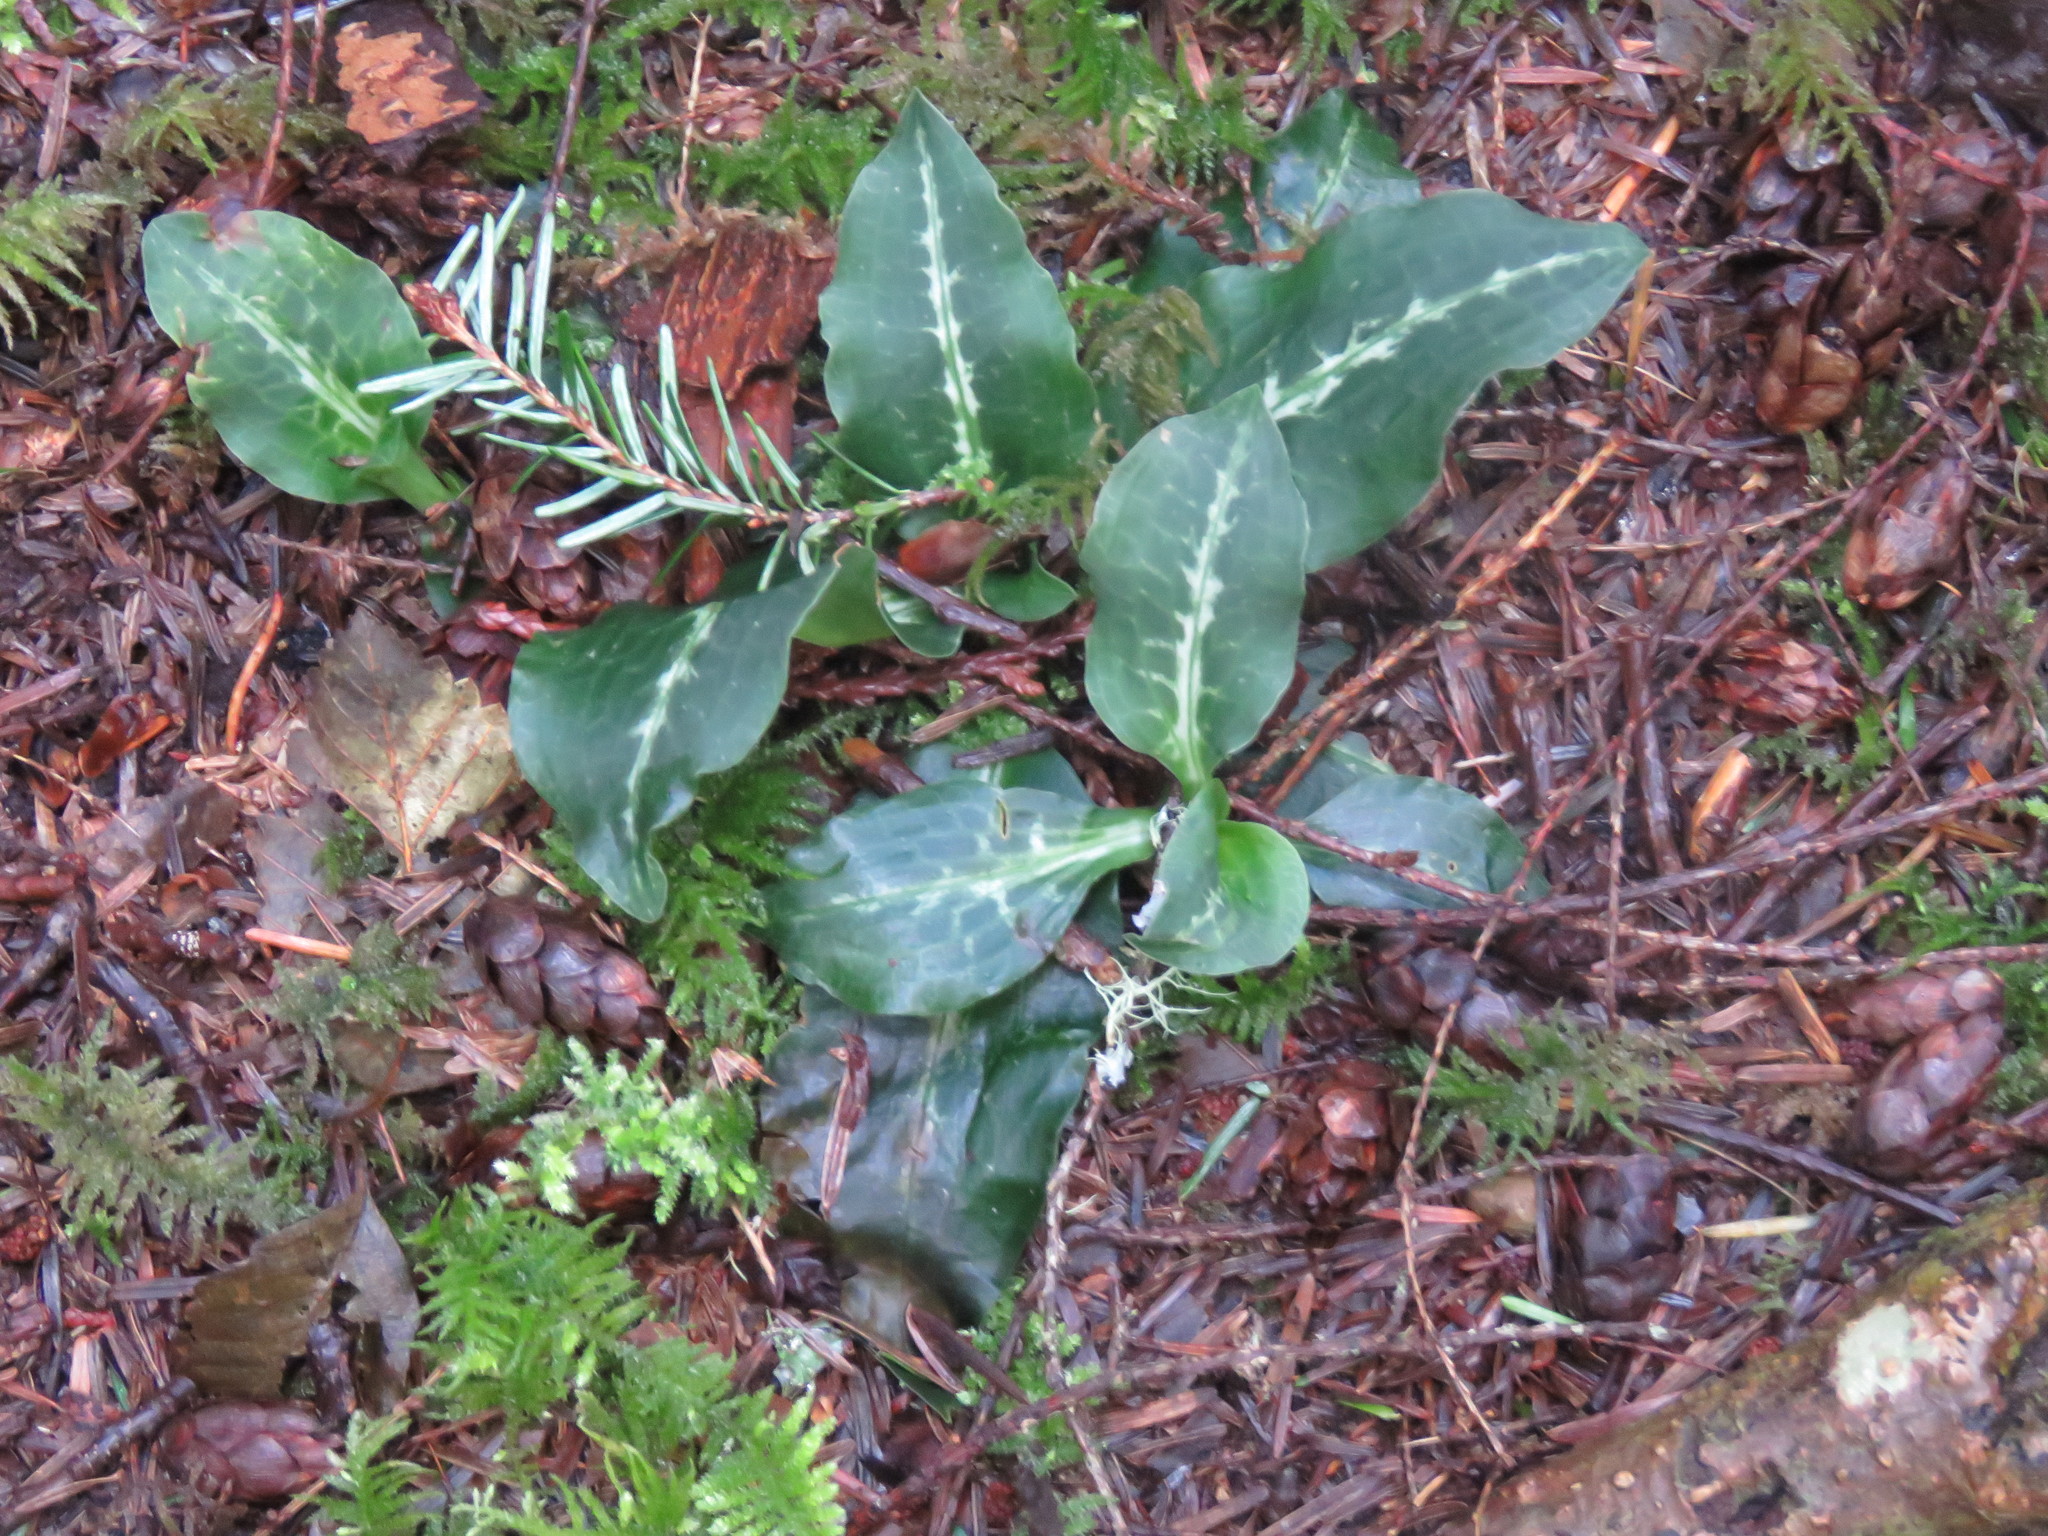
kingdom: Plantae
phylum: Tracheophyta
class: Liliopsida
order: Asparagales
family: Orchidaceae
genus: Goodyera
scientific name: Goodyera oblongifolia
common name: Giant rattlesnake-plantain
